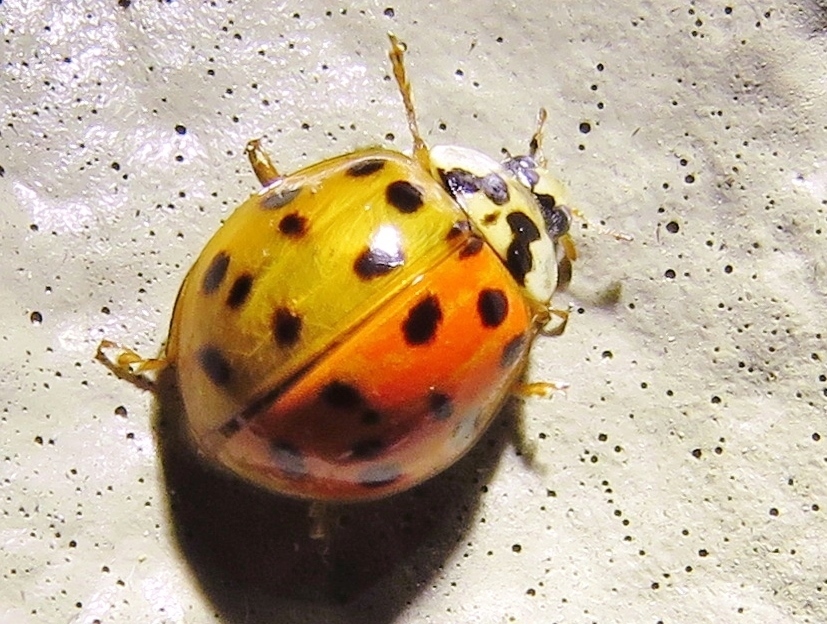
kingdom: Animalia
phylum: Arthropoda
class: Insecta
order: Coleoptera
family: Coccinellidae
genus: Harmonia
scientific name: Harmonia axyridis
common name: Harlequin ladybird
